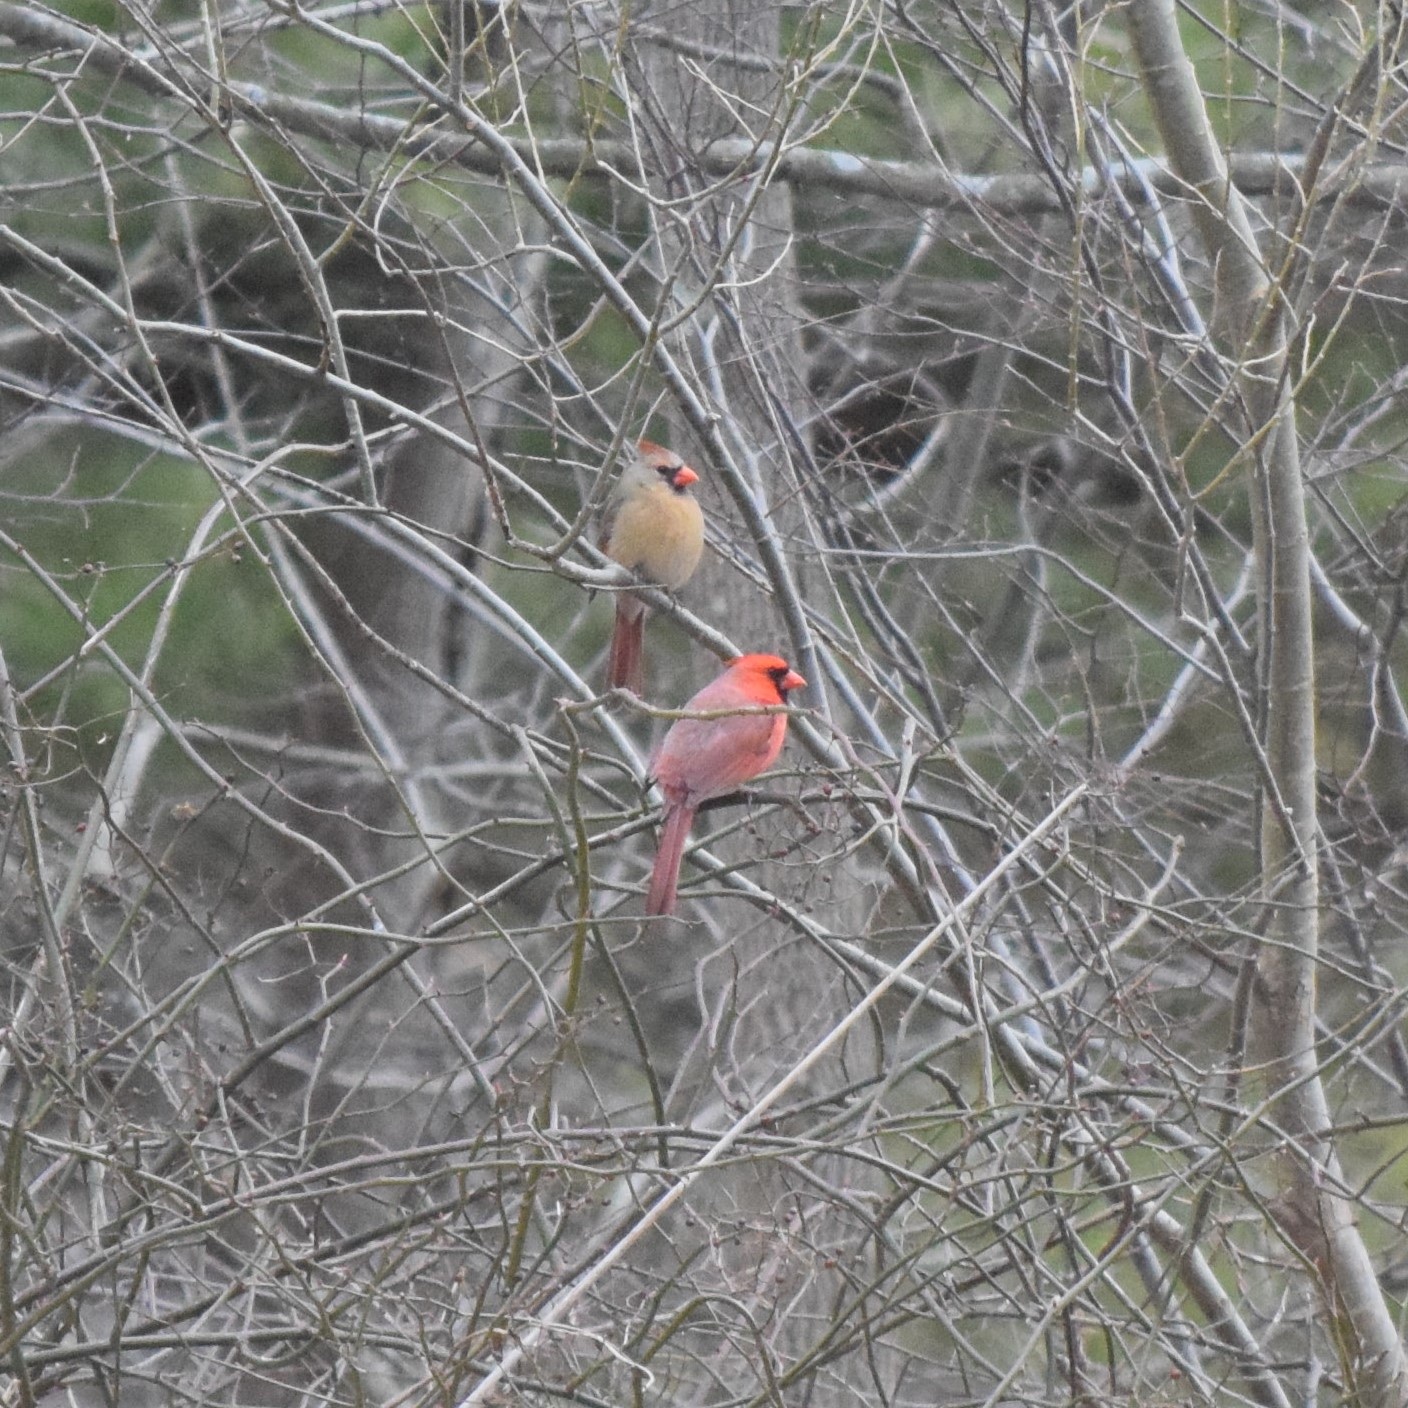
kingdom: Animalia
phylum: Chordata
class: Aves
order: Passeriformes
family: Cardinalidae
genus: Cardinalis
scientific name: Cardinalis cardinalis
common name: Northern cardinal
